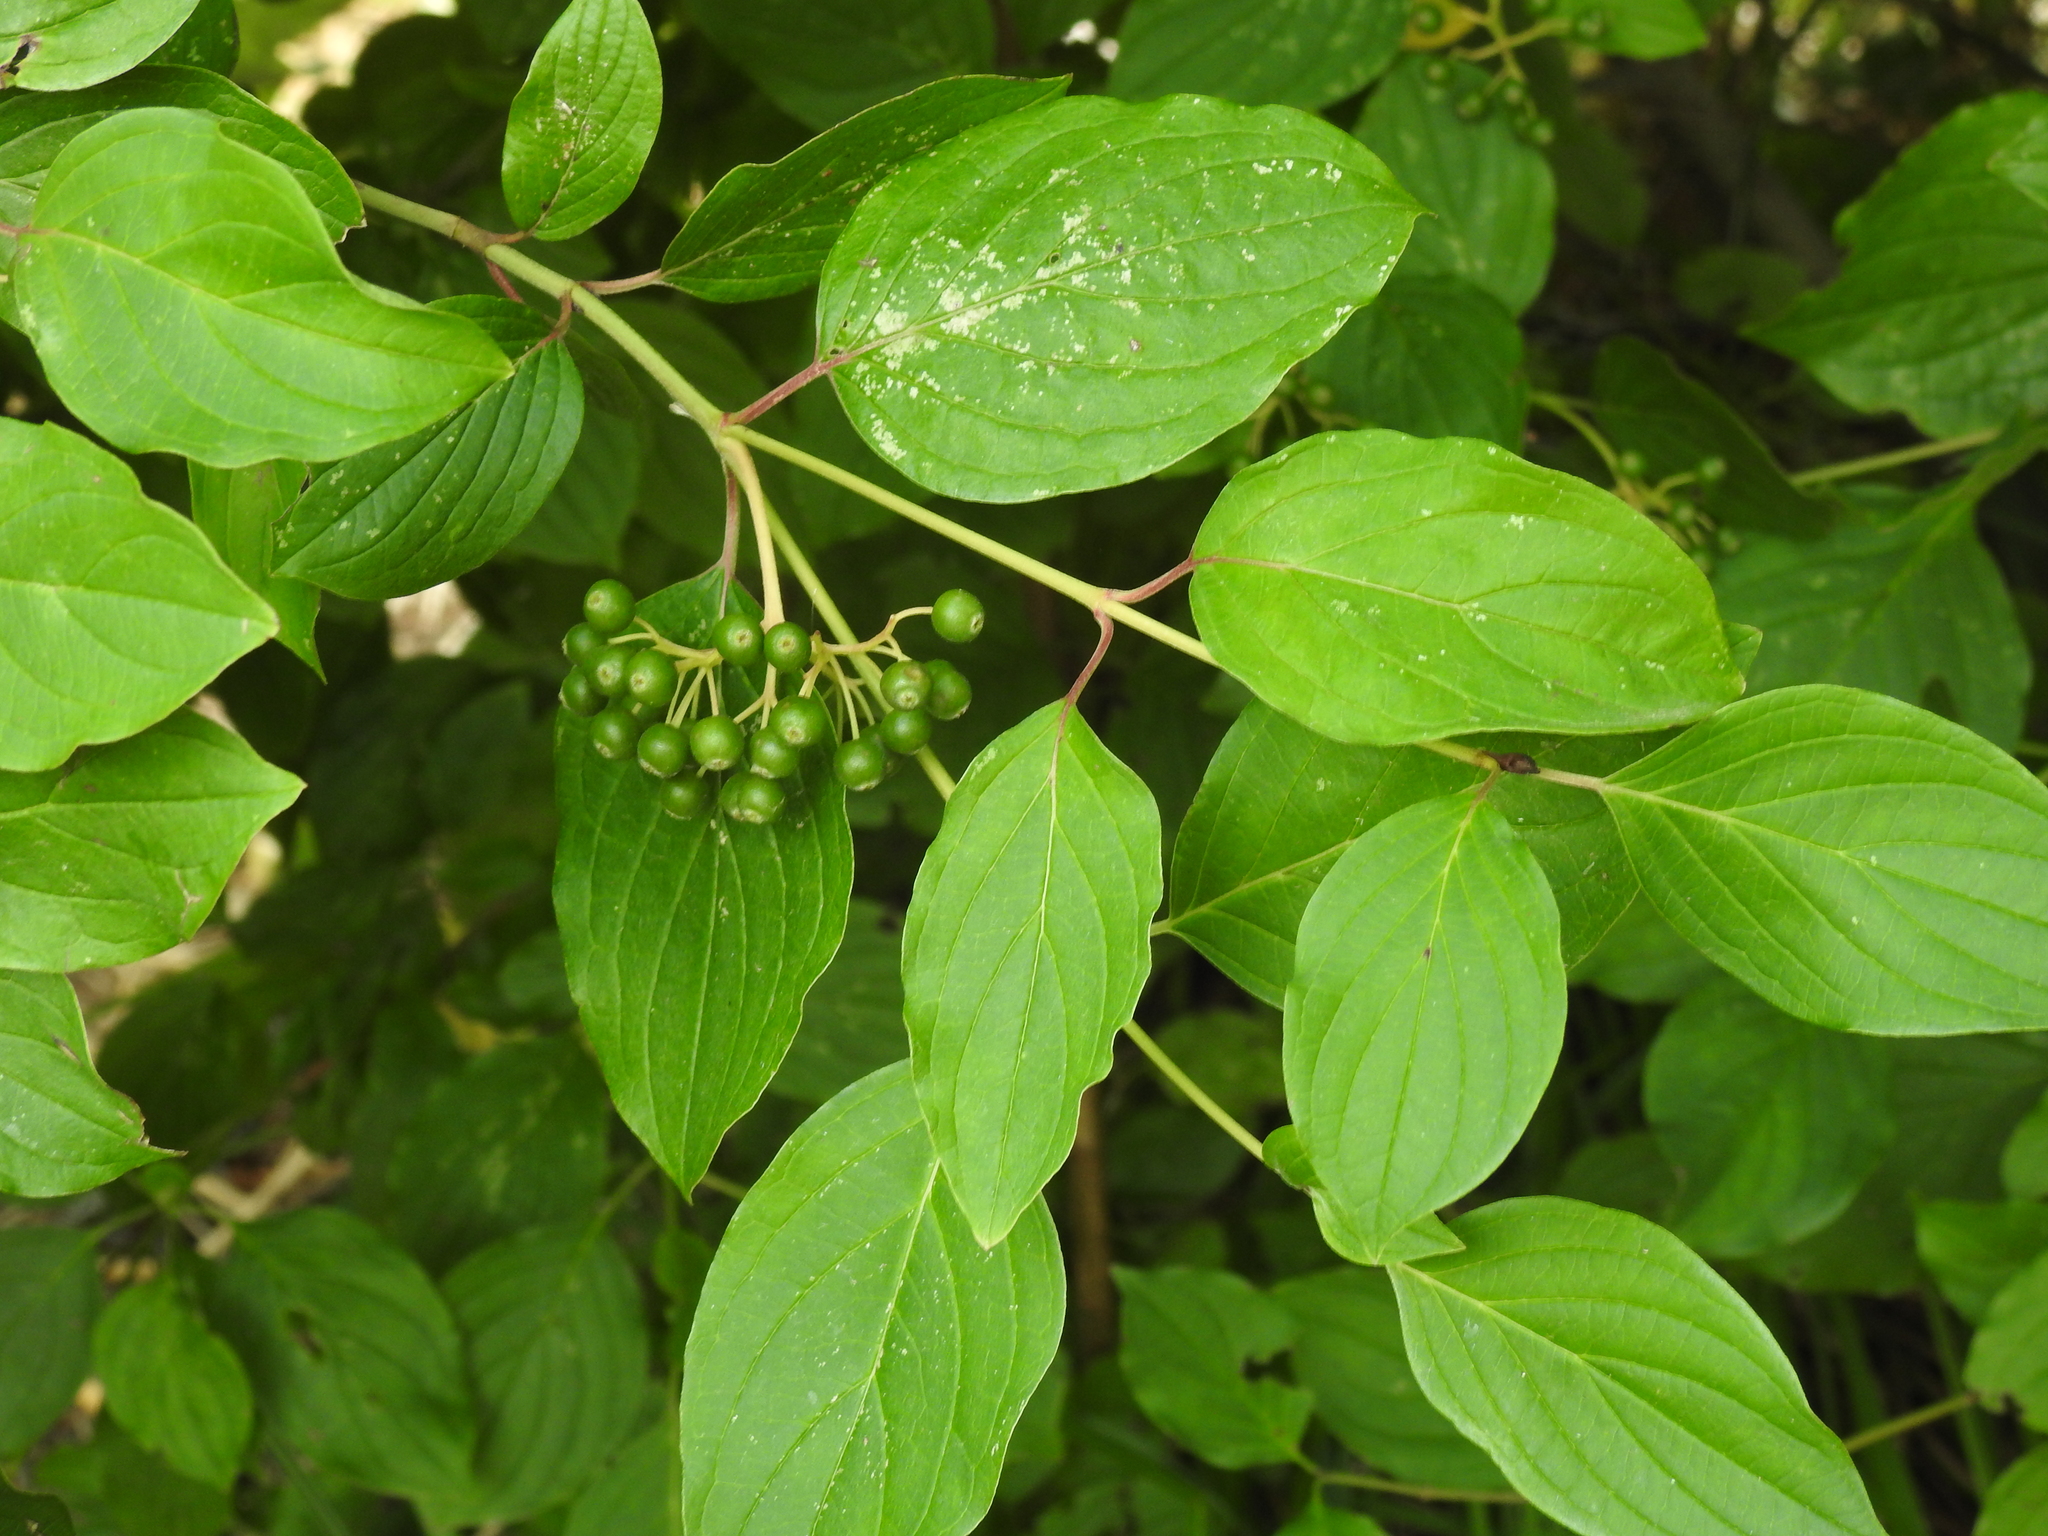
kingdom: Plantae
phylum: Tracheophyta
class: Magnoliopsida
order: Cornales
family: Cornaceae
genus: Cornus
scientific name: Cornus sanguinea
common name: Dogwood
